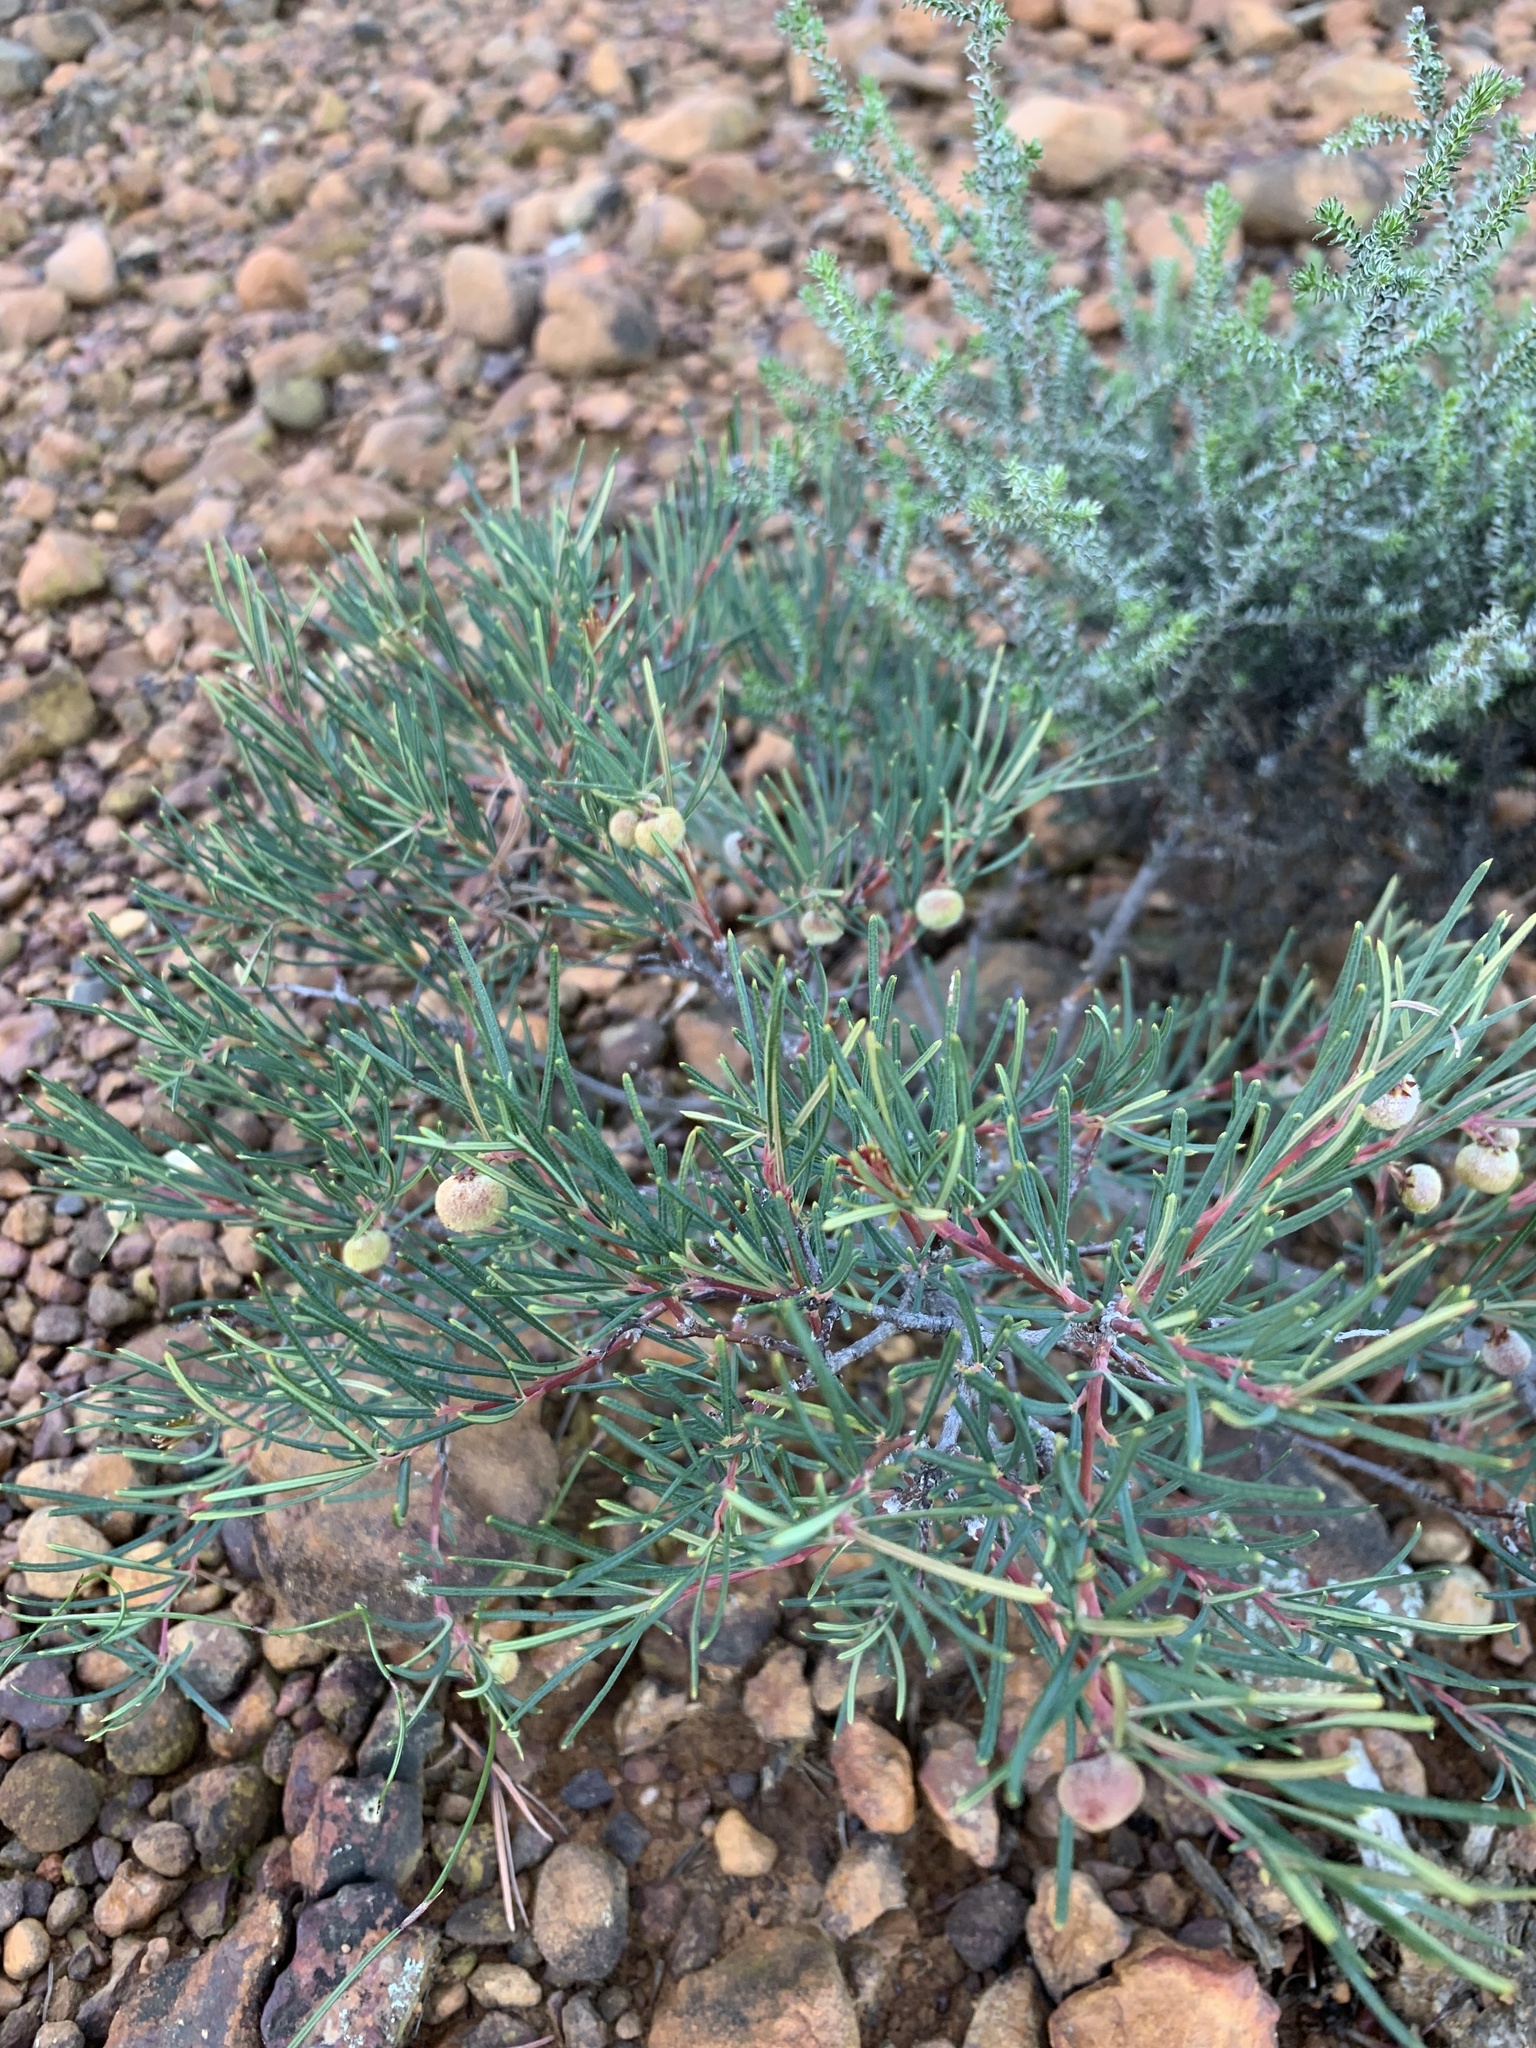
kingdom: Plantae
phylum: Tracheophyta
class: Magnoliopsida
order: Sapindales
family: Anacardiaceae
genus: Searsia
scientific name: Searsia rosmarinifolia
